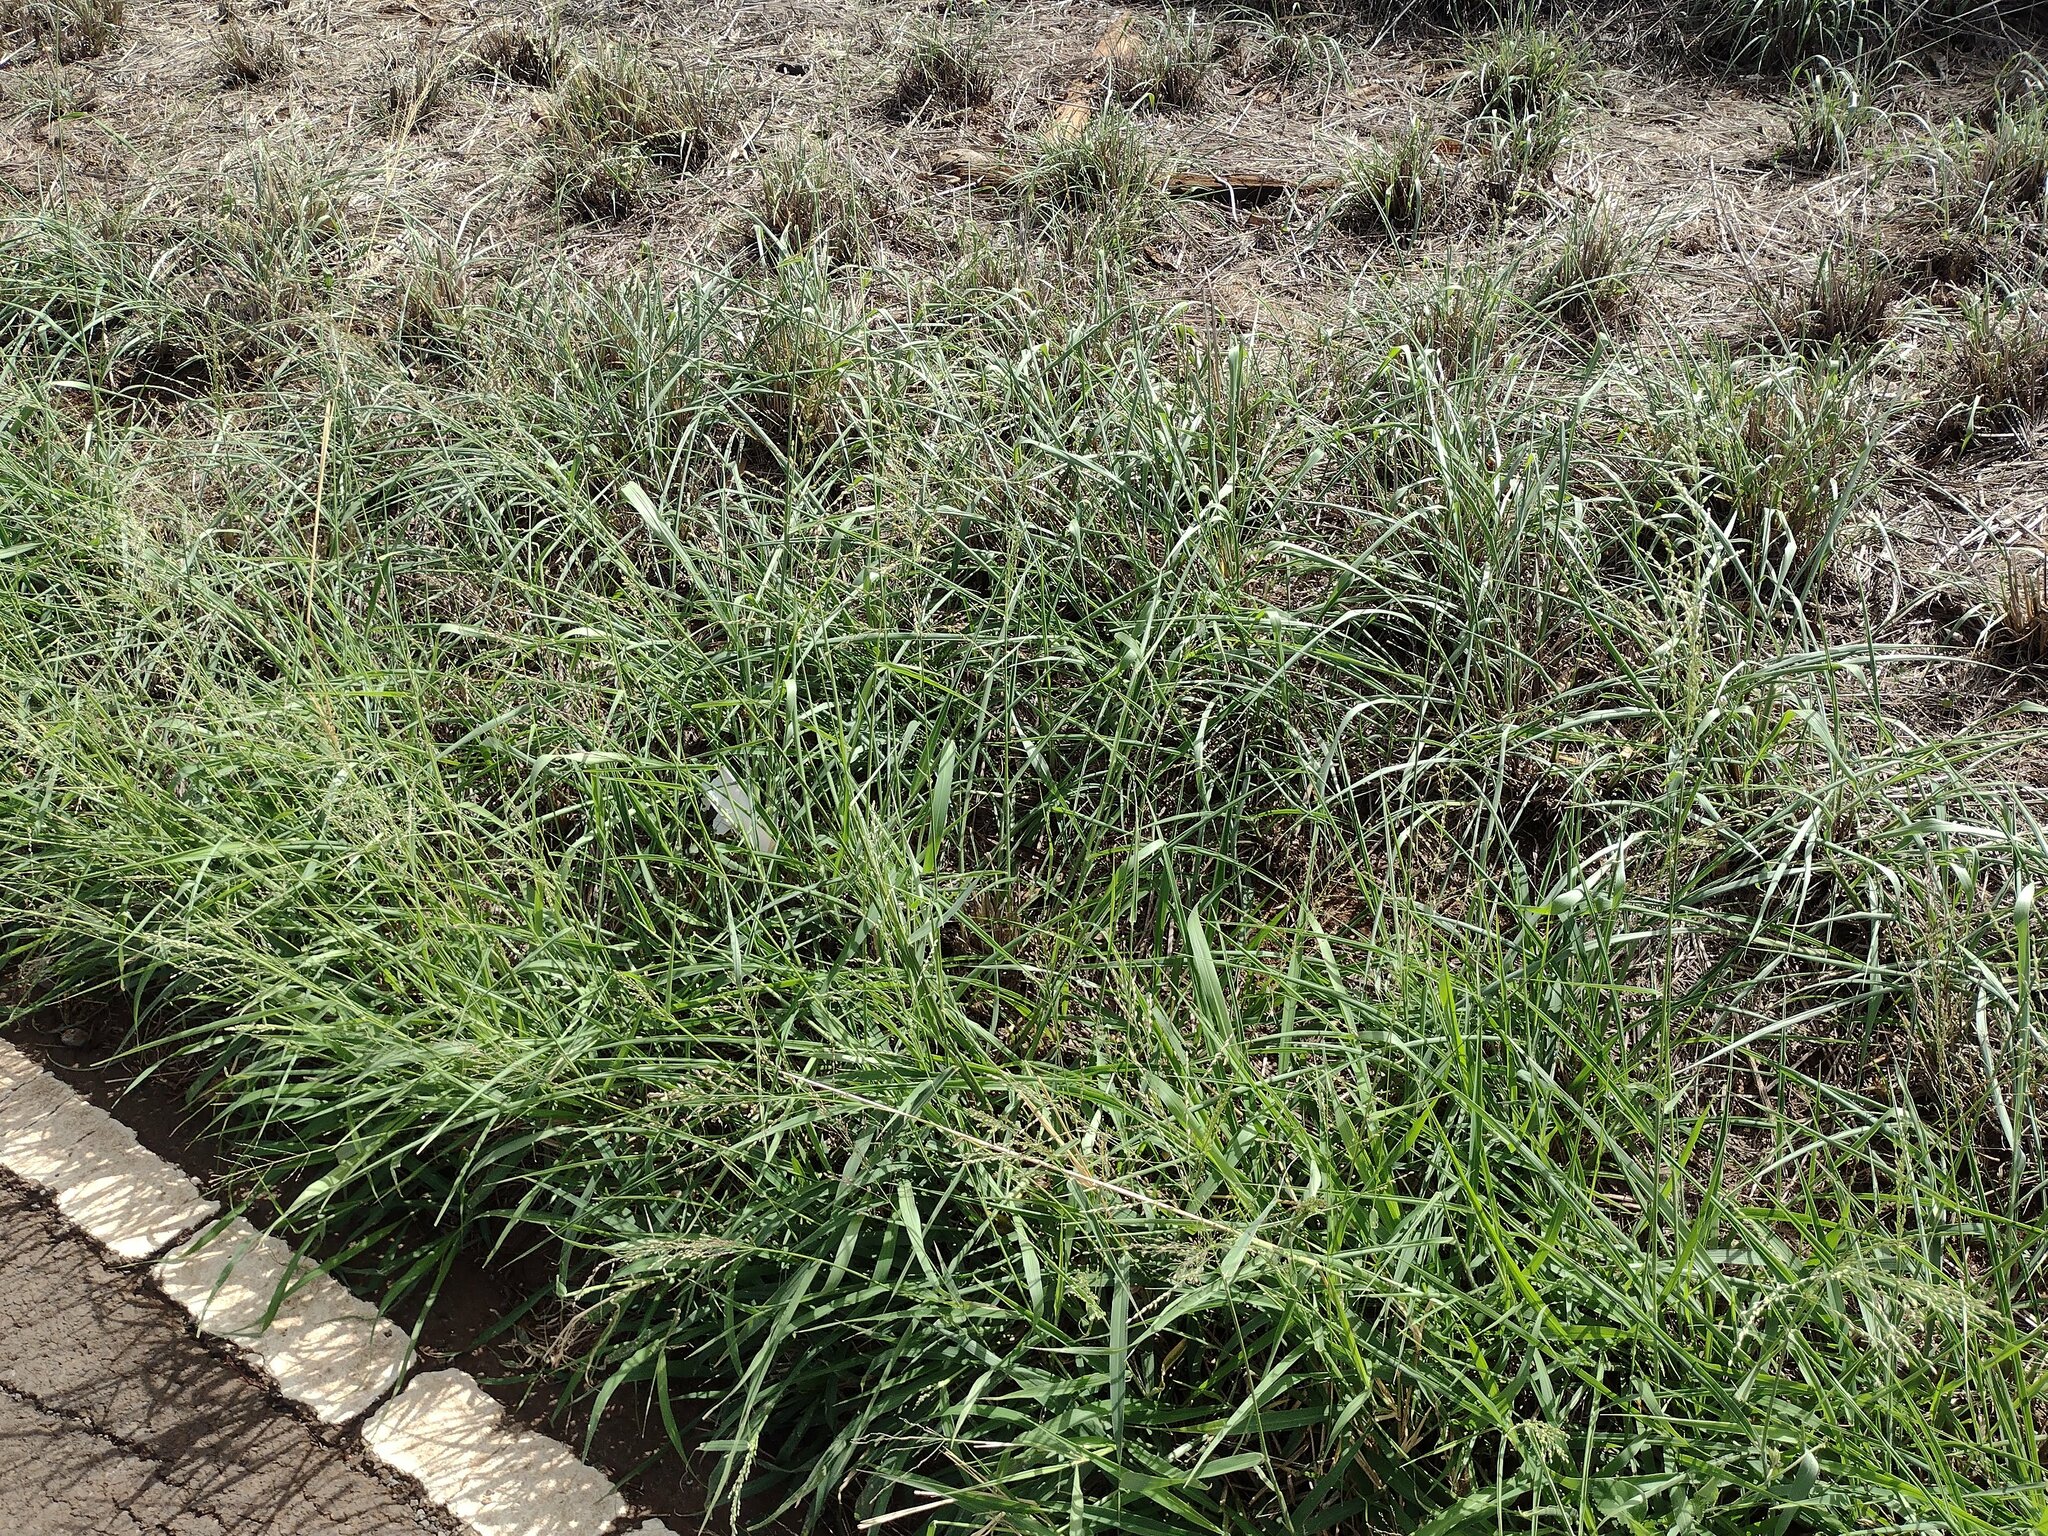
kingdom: Plantae
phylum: Tracheophyta
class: Liliopsida
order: Poales
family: Poaceae
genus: Megathyrsus
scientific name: Megathyrsus maximus
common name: Guineagrass
